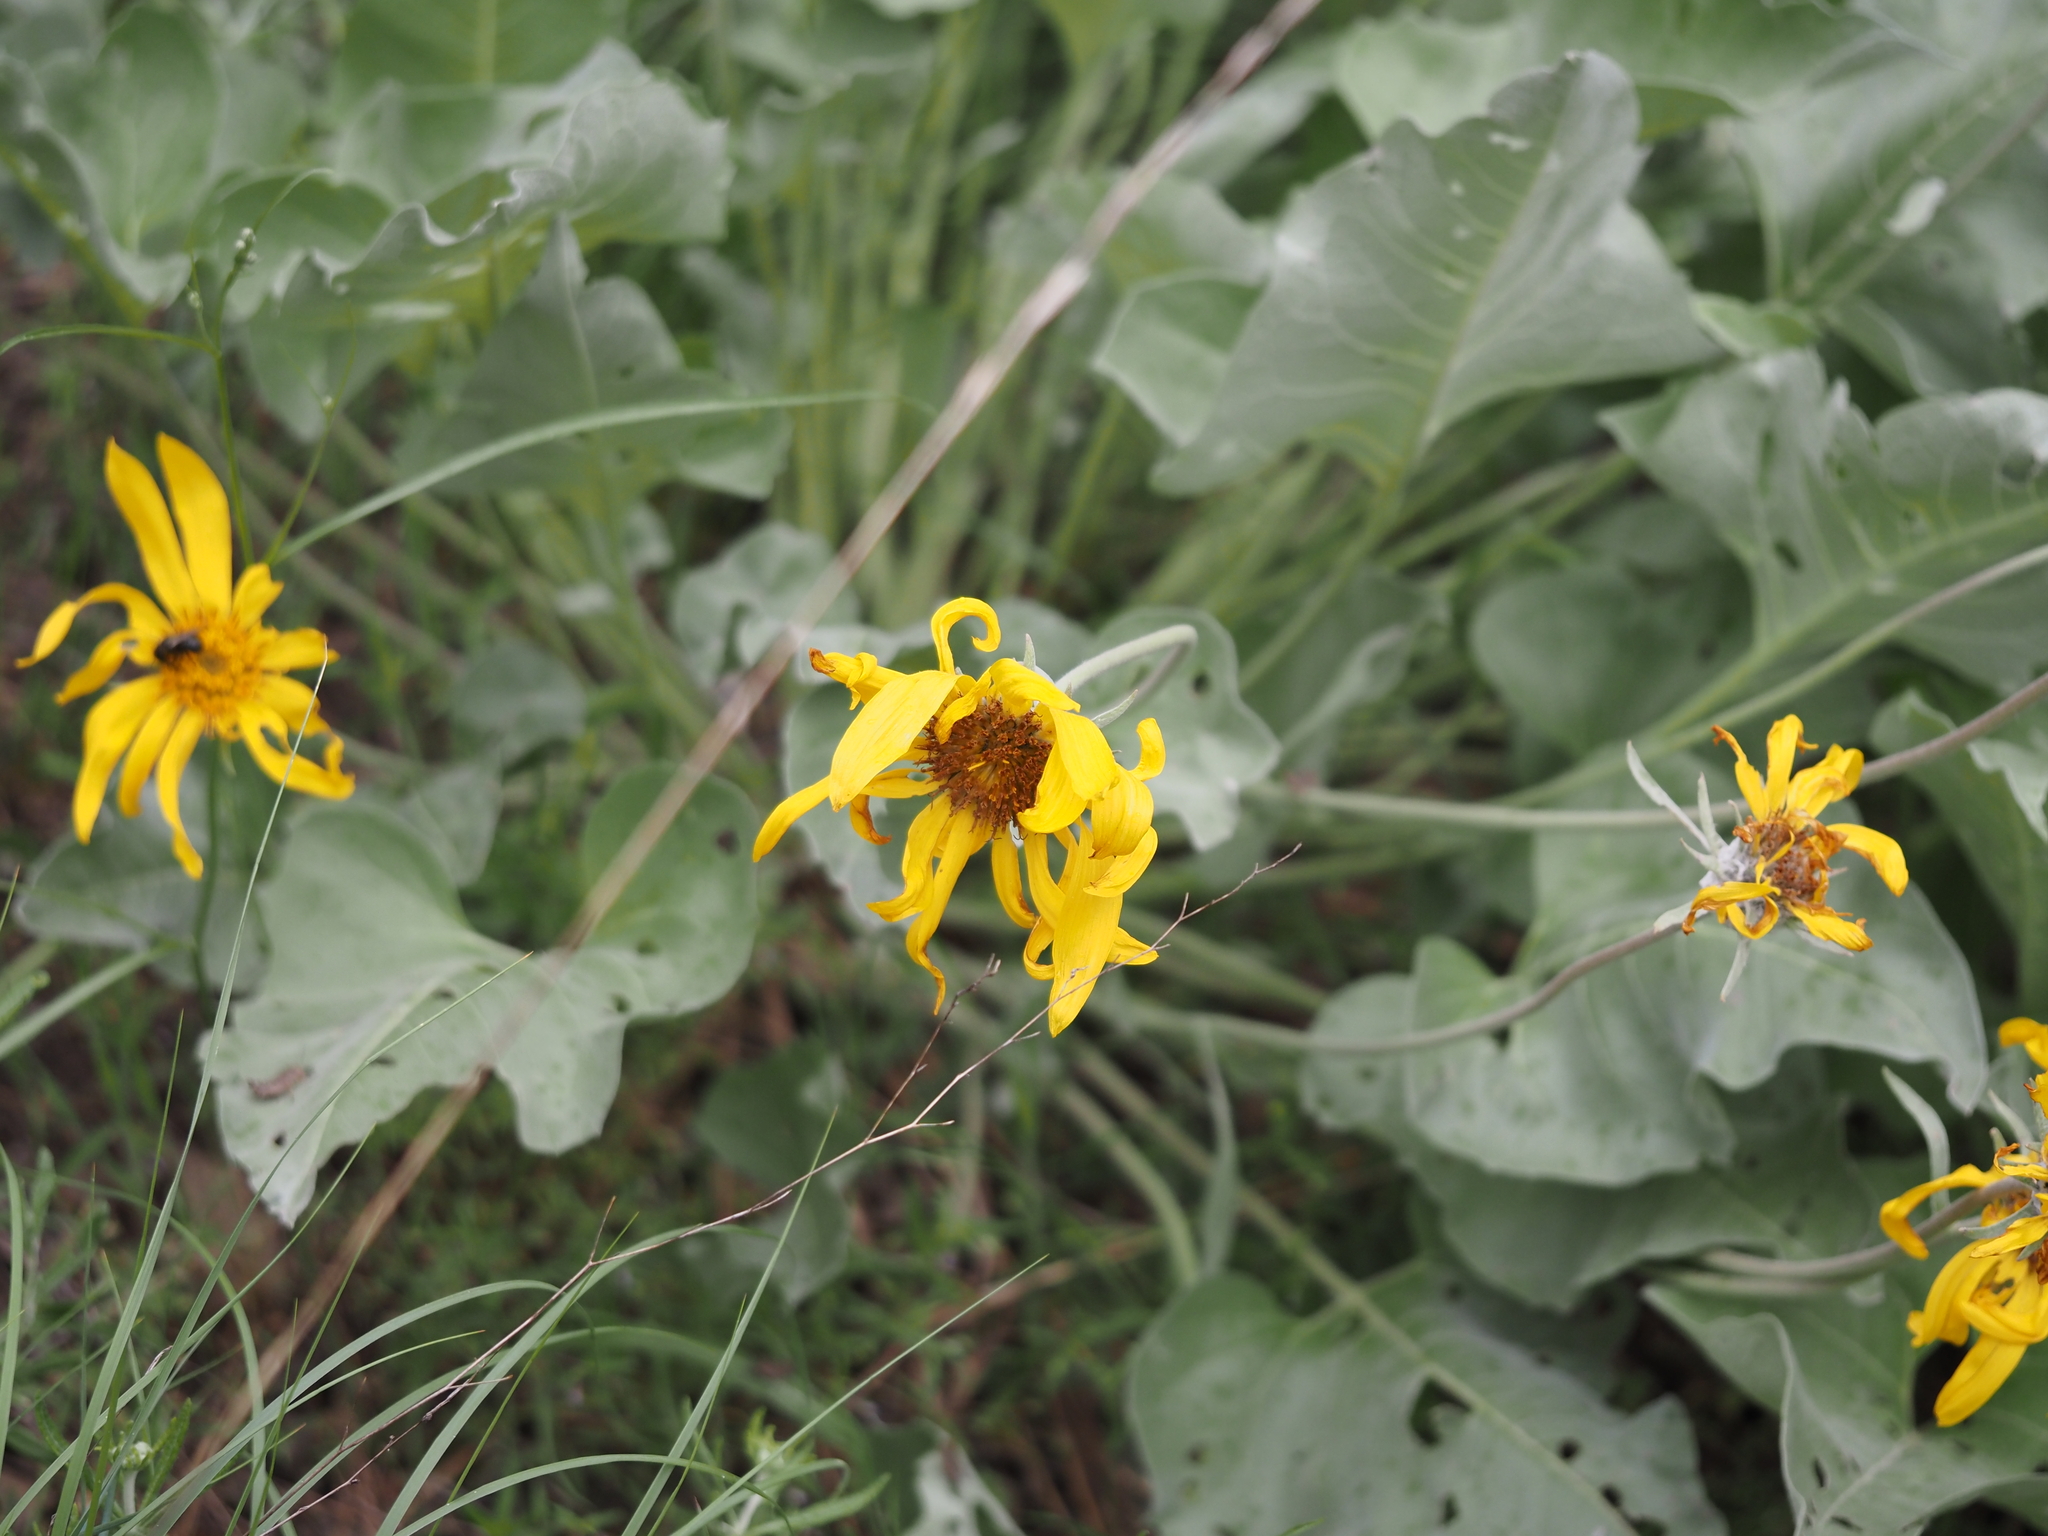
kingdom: Plantae
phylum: Tracheophyta
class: Magnoliopsida
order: Asterales
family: Asteraceae
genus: Wyethia
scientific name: Wyethia sagittata
